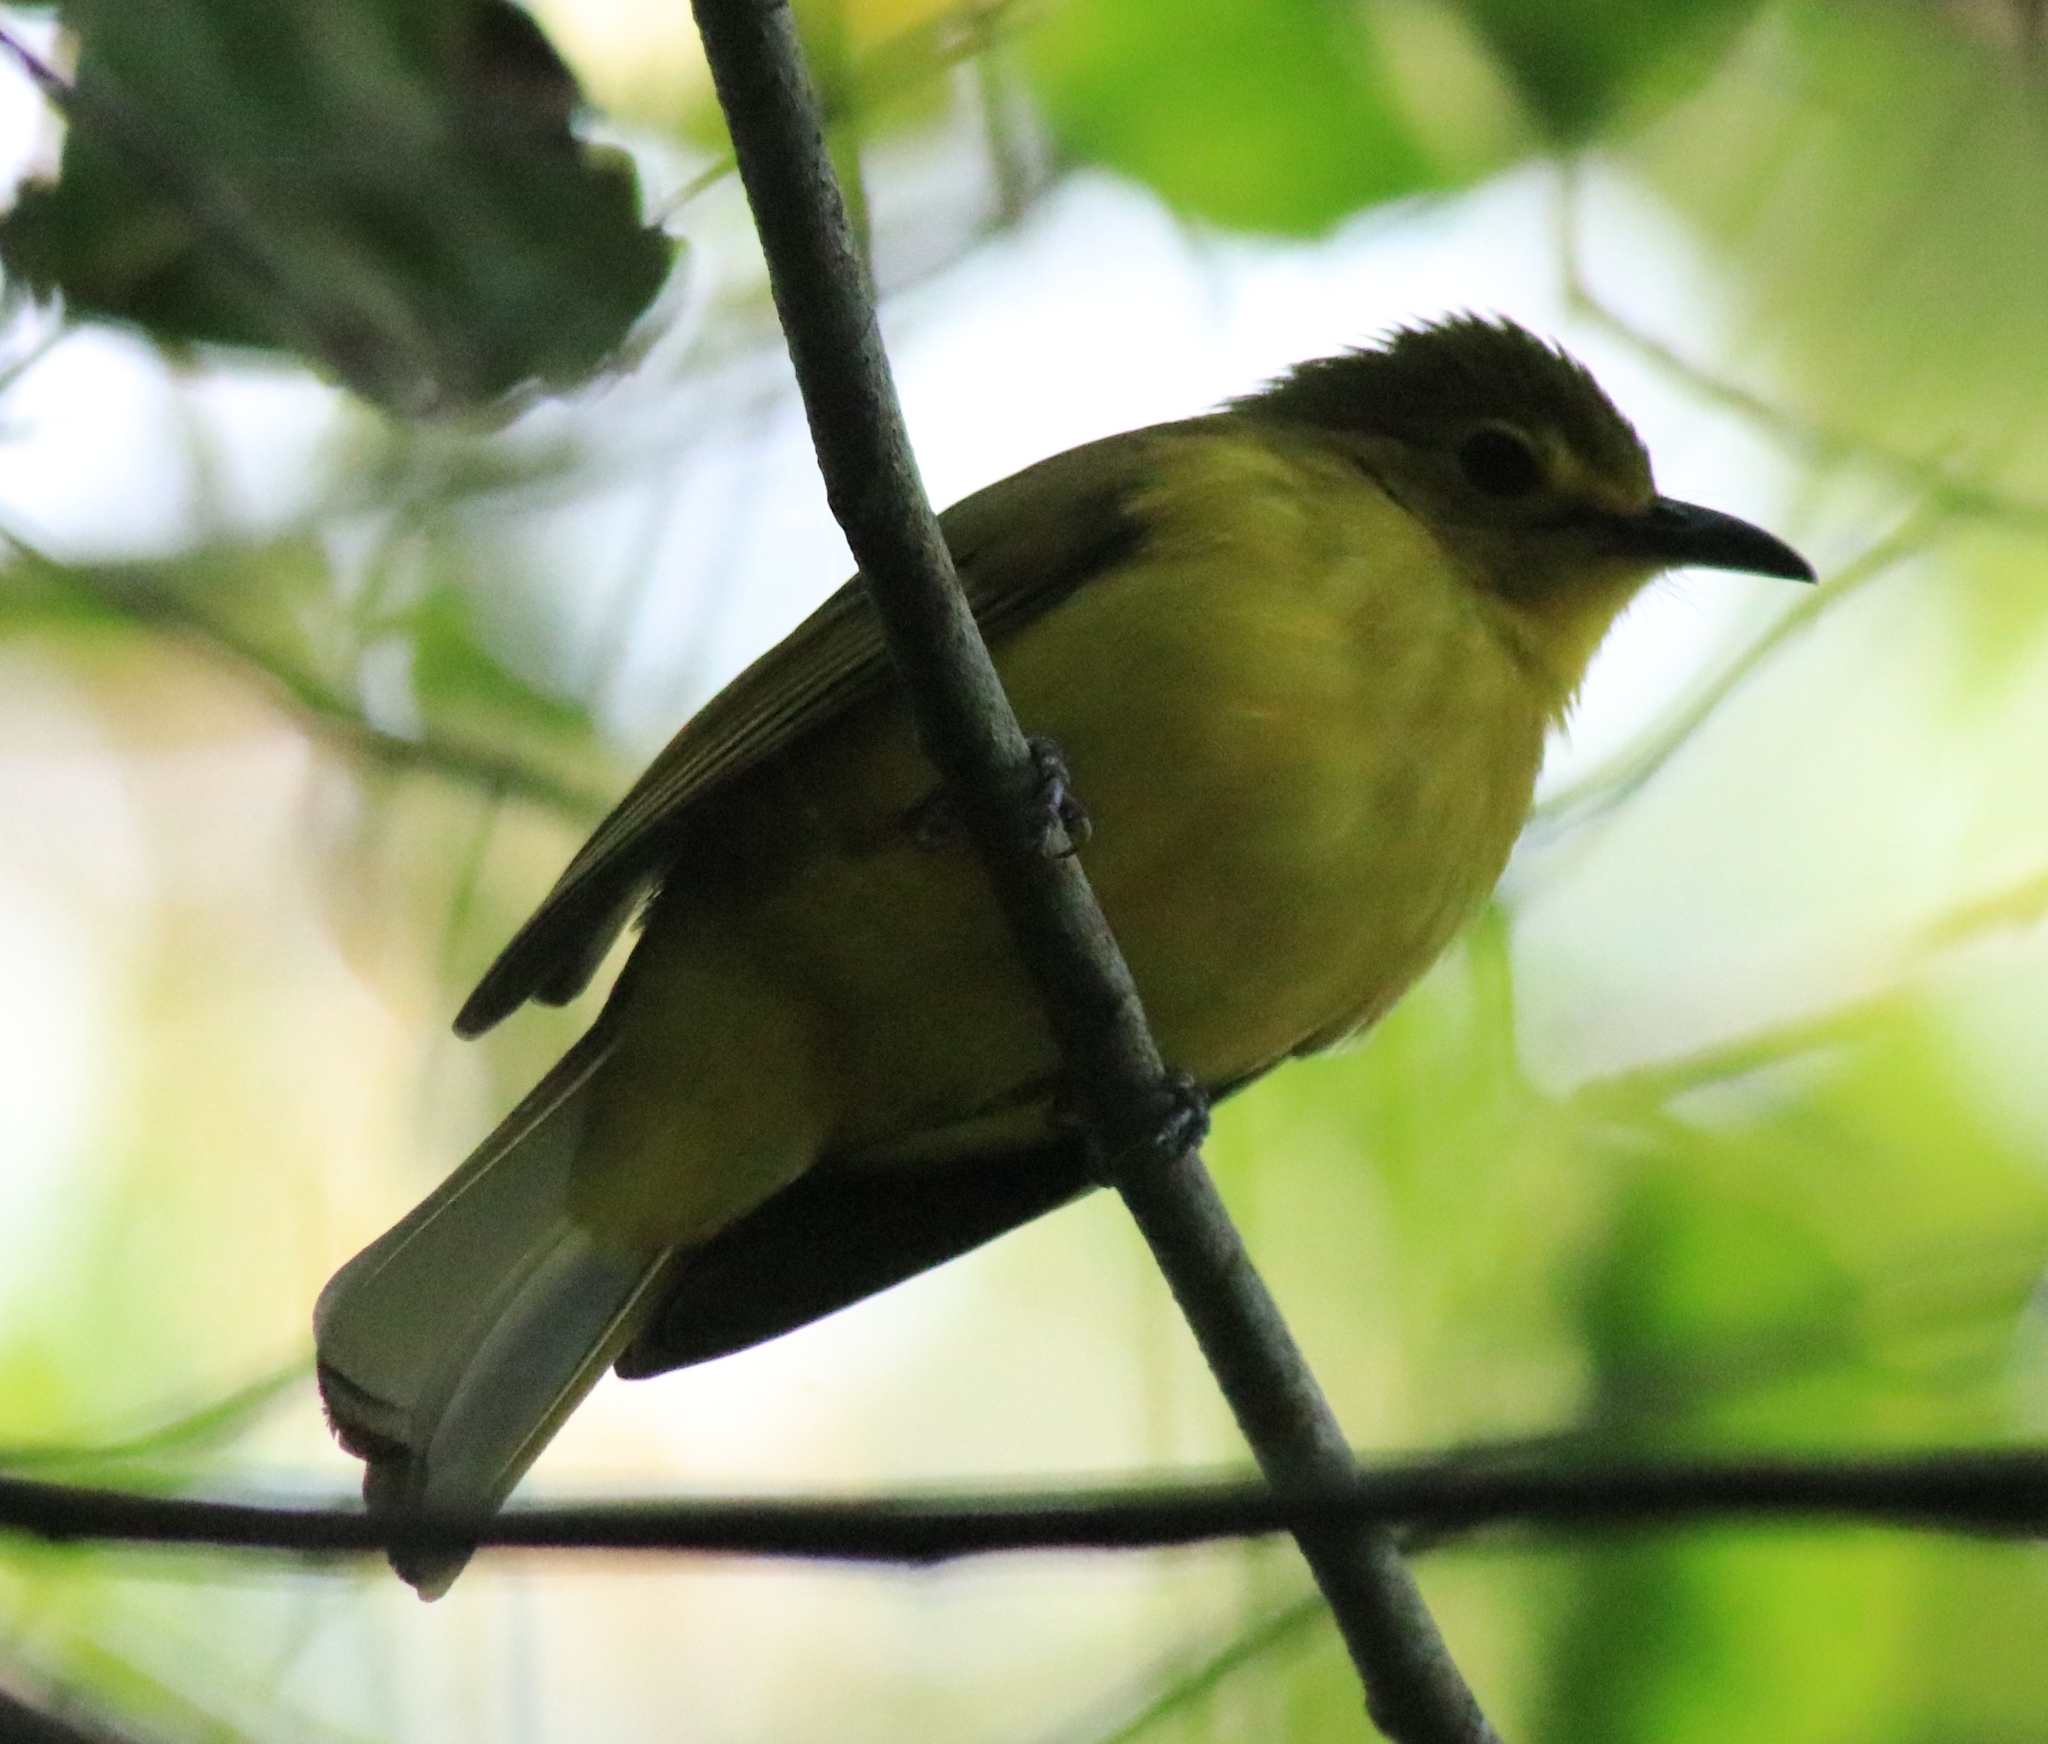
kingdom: Animalia
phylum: Chordata
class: Aves
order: Passeriformes
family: Pycnonotidae
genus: Acritillas
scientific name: Acritillas indica
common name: Yellow-browed bulbul
